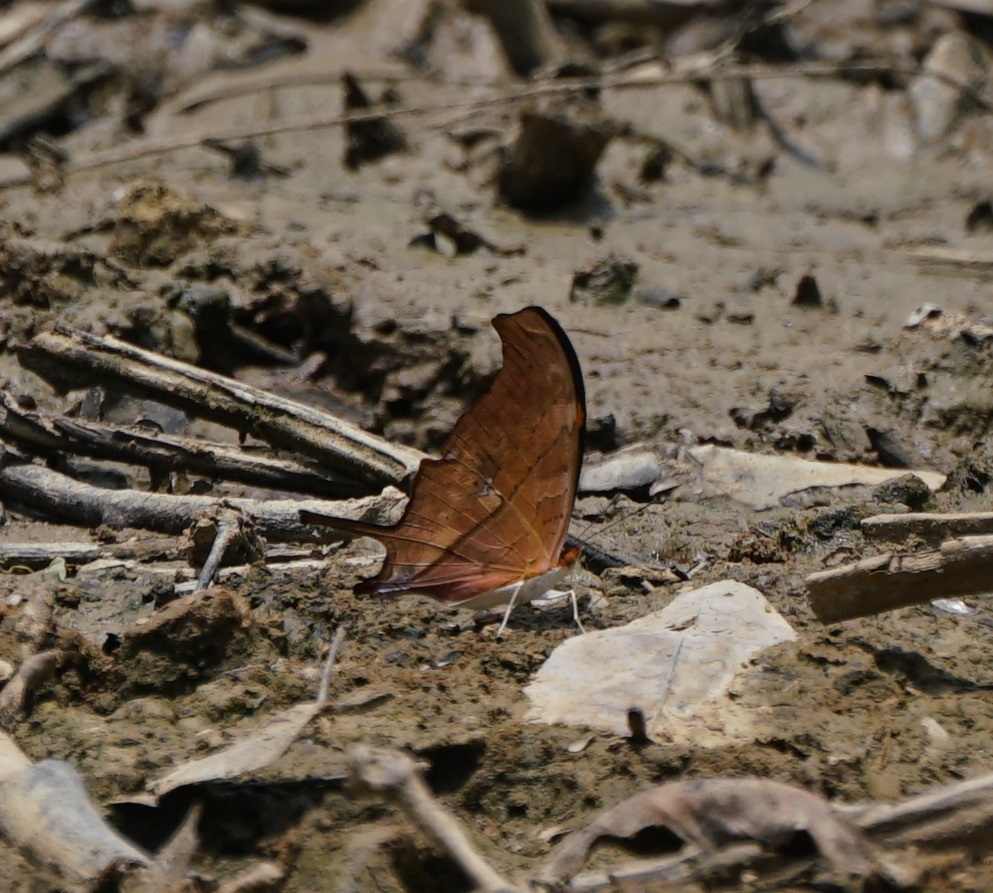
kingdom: Animalia
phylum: Arthropoda
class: Insecta
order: Lepidoptera
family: Nymphalidae
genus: Marpesia
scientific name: Marpesia petreus
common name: Red dagger wing
